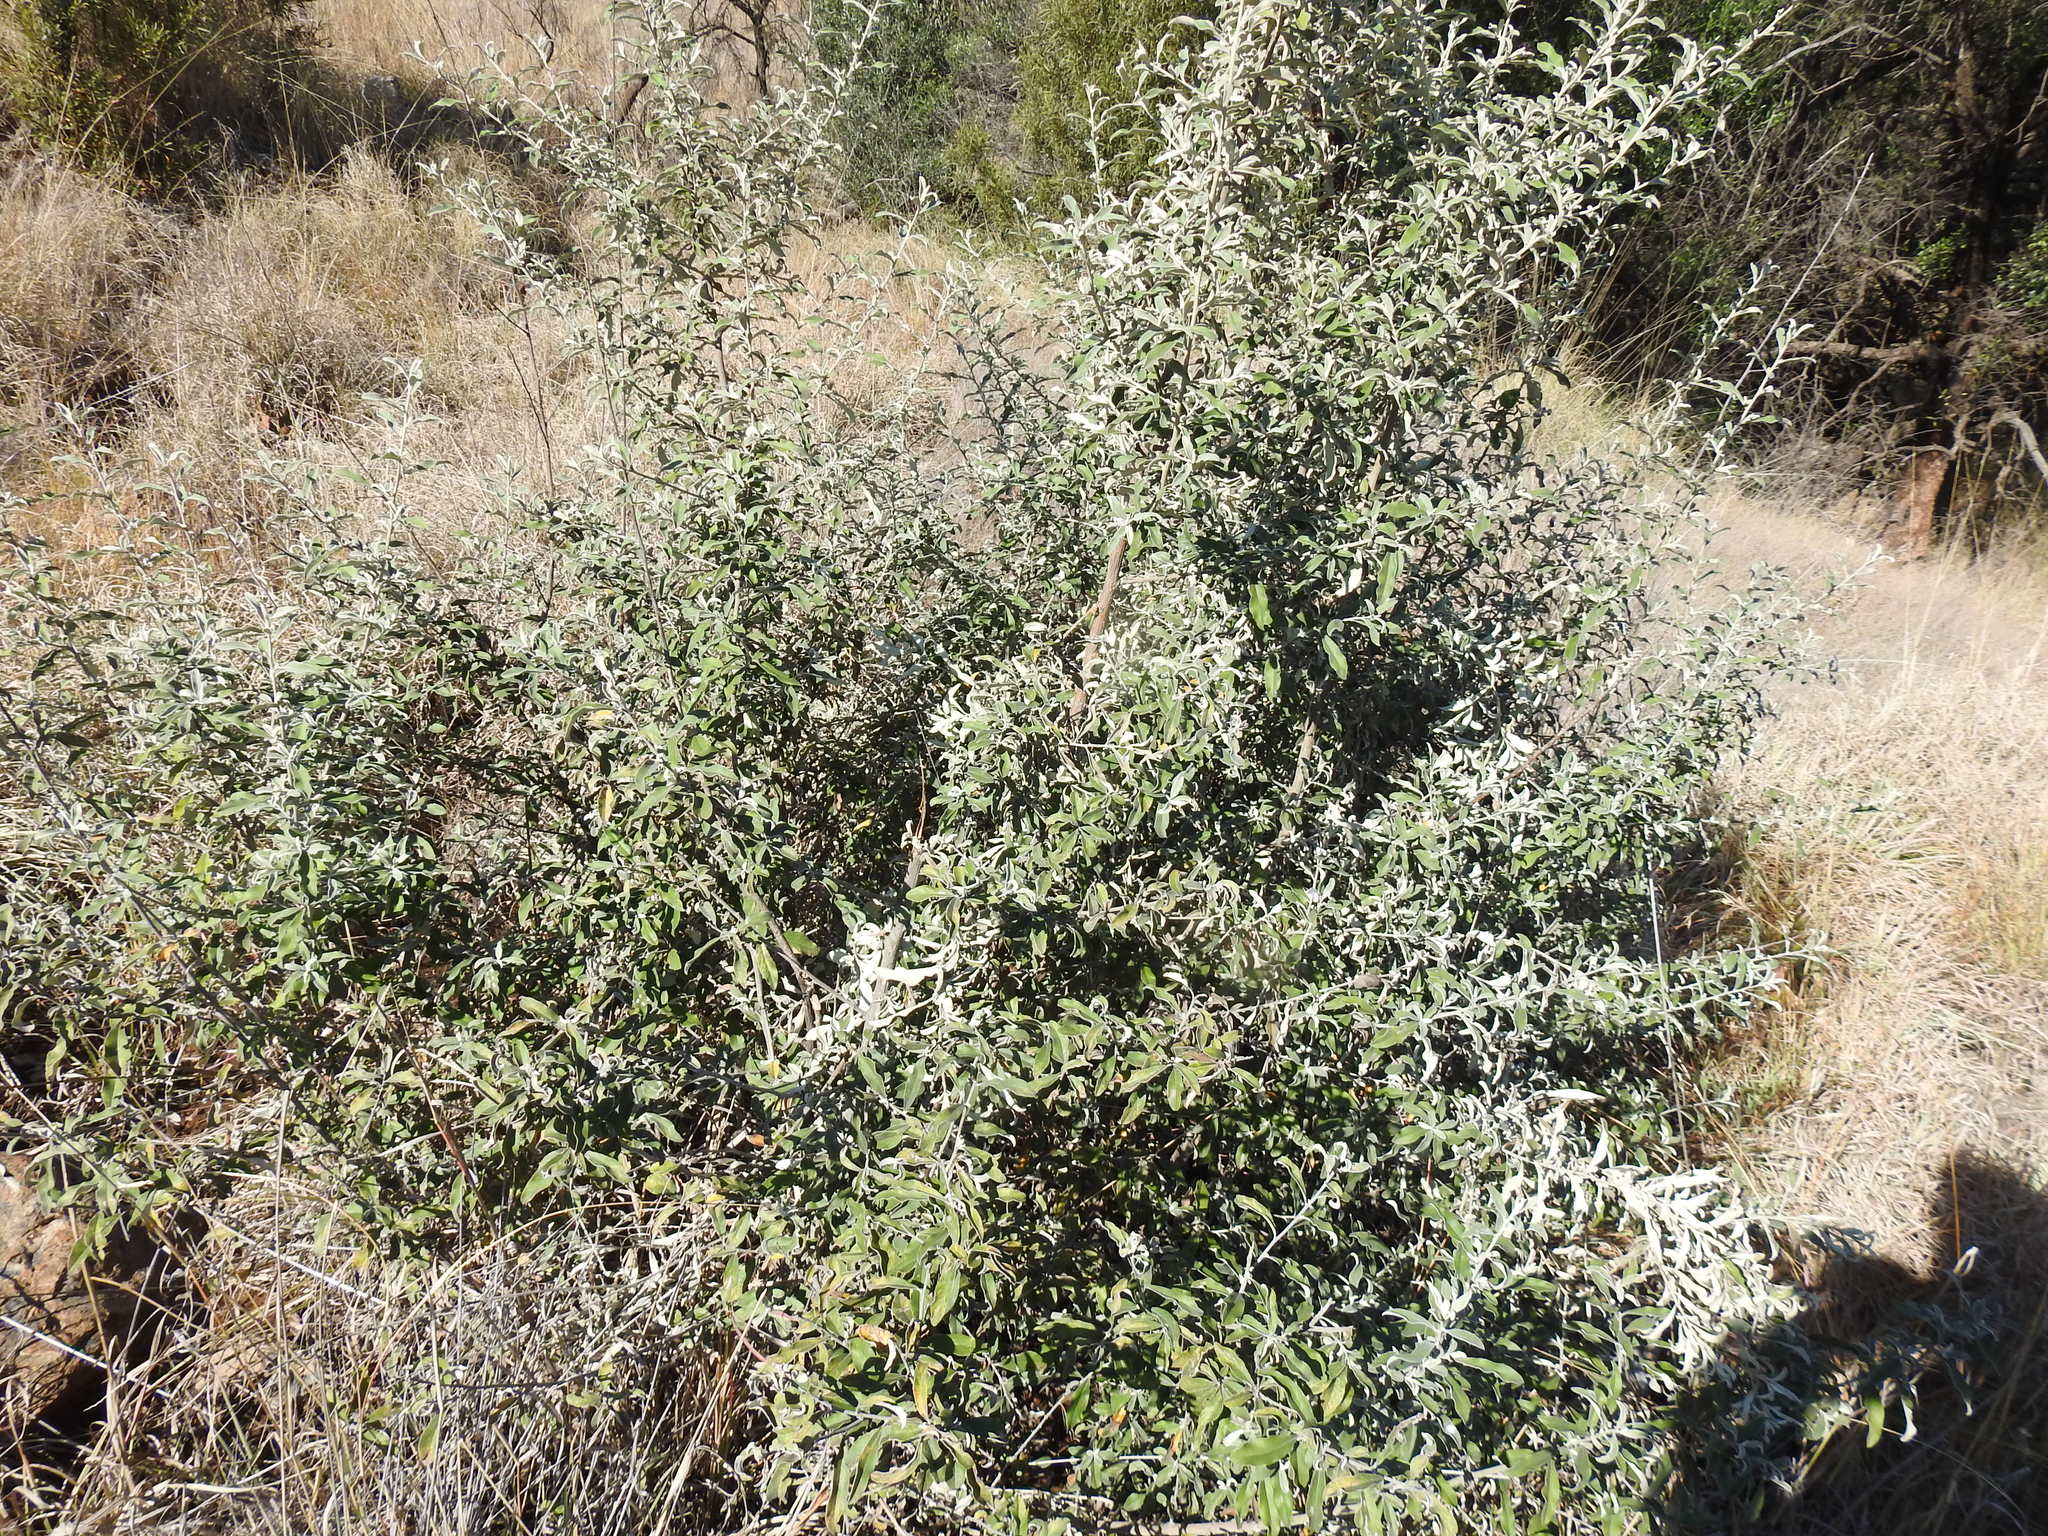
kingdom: Plantae
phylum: Tracheophyta
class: Magnoliopsida
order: Lamiales
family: Scrophulariaceae
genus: Buddleja
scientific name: Buddleja salviifolia
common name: Sagewood
